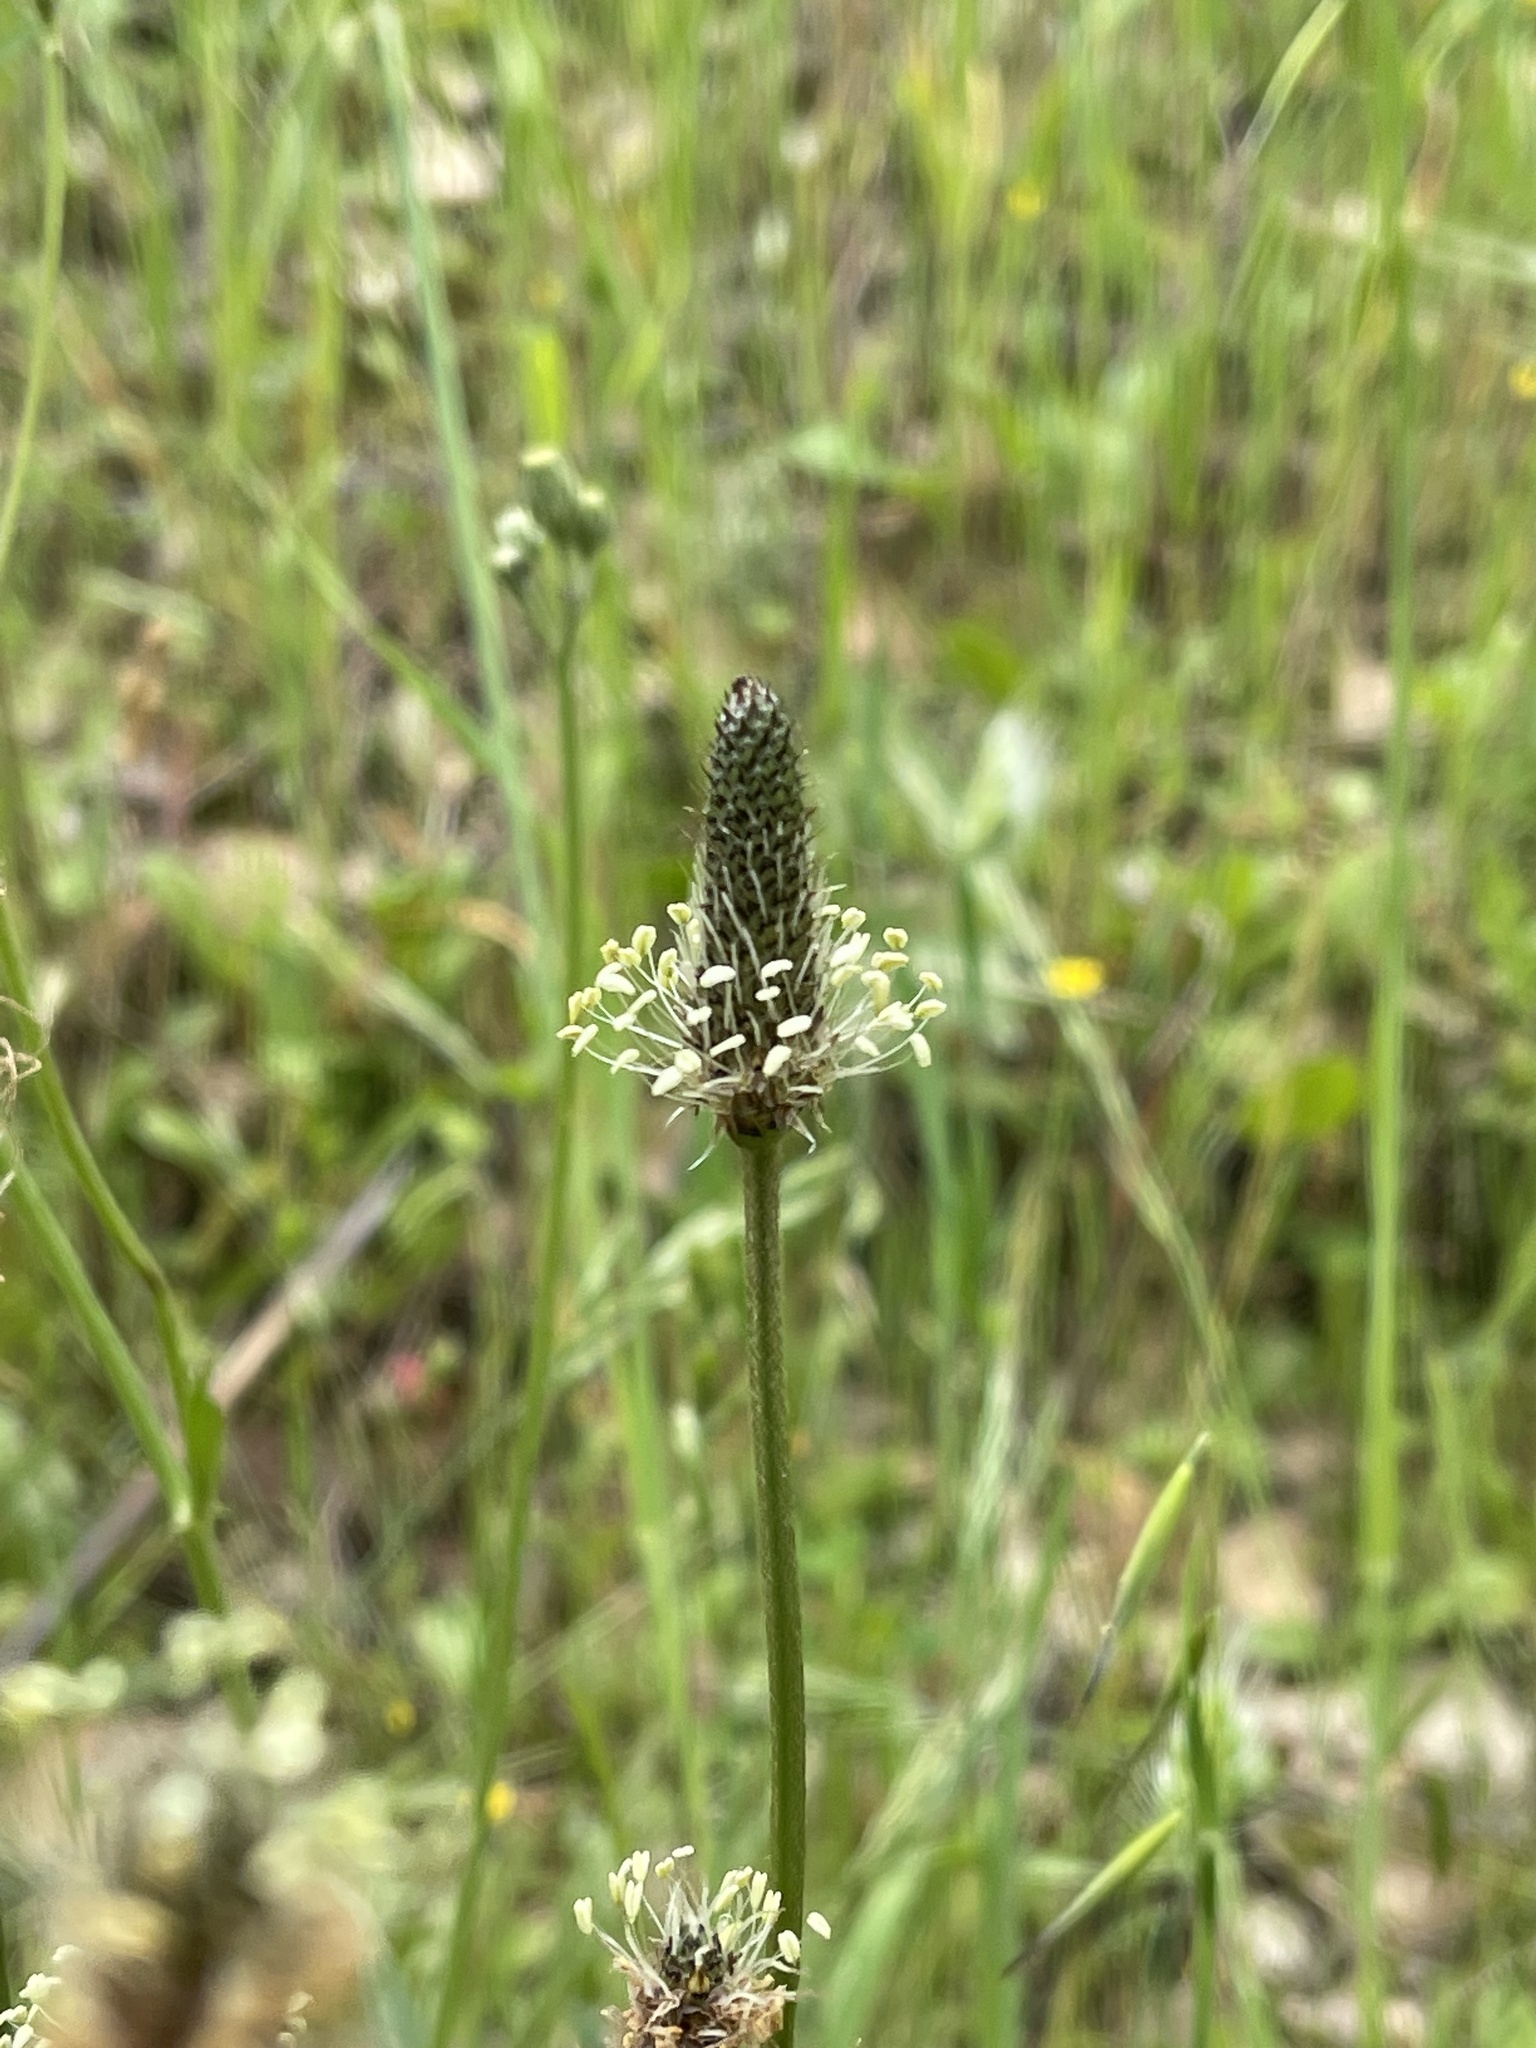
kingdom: Plantae
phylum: Tracheophyta
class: Magnoliopsida
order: Lamiales
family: Plantaginaceae
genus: Plantago
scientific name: Plantago lanceolata
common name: Ribwort plantain
